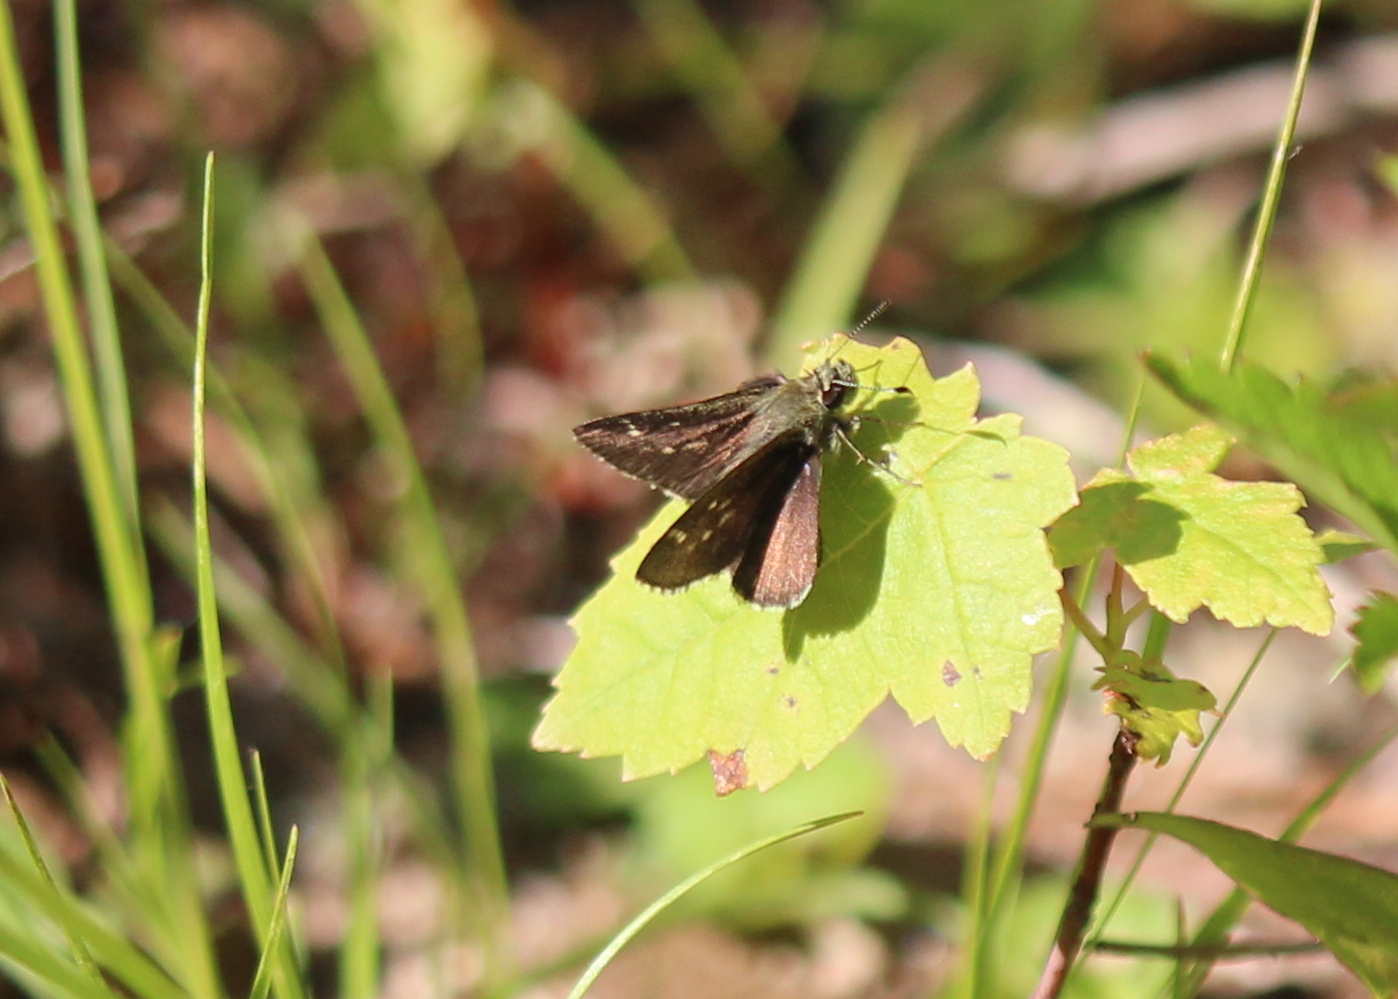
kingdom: Animalia
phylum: Arthropoda
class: Insecta
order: Lepidoptera
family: Hesperiidae
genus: Mastor
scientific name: Mastor hegon
